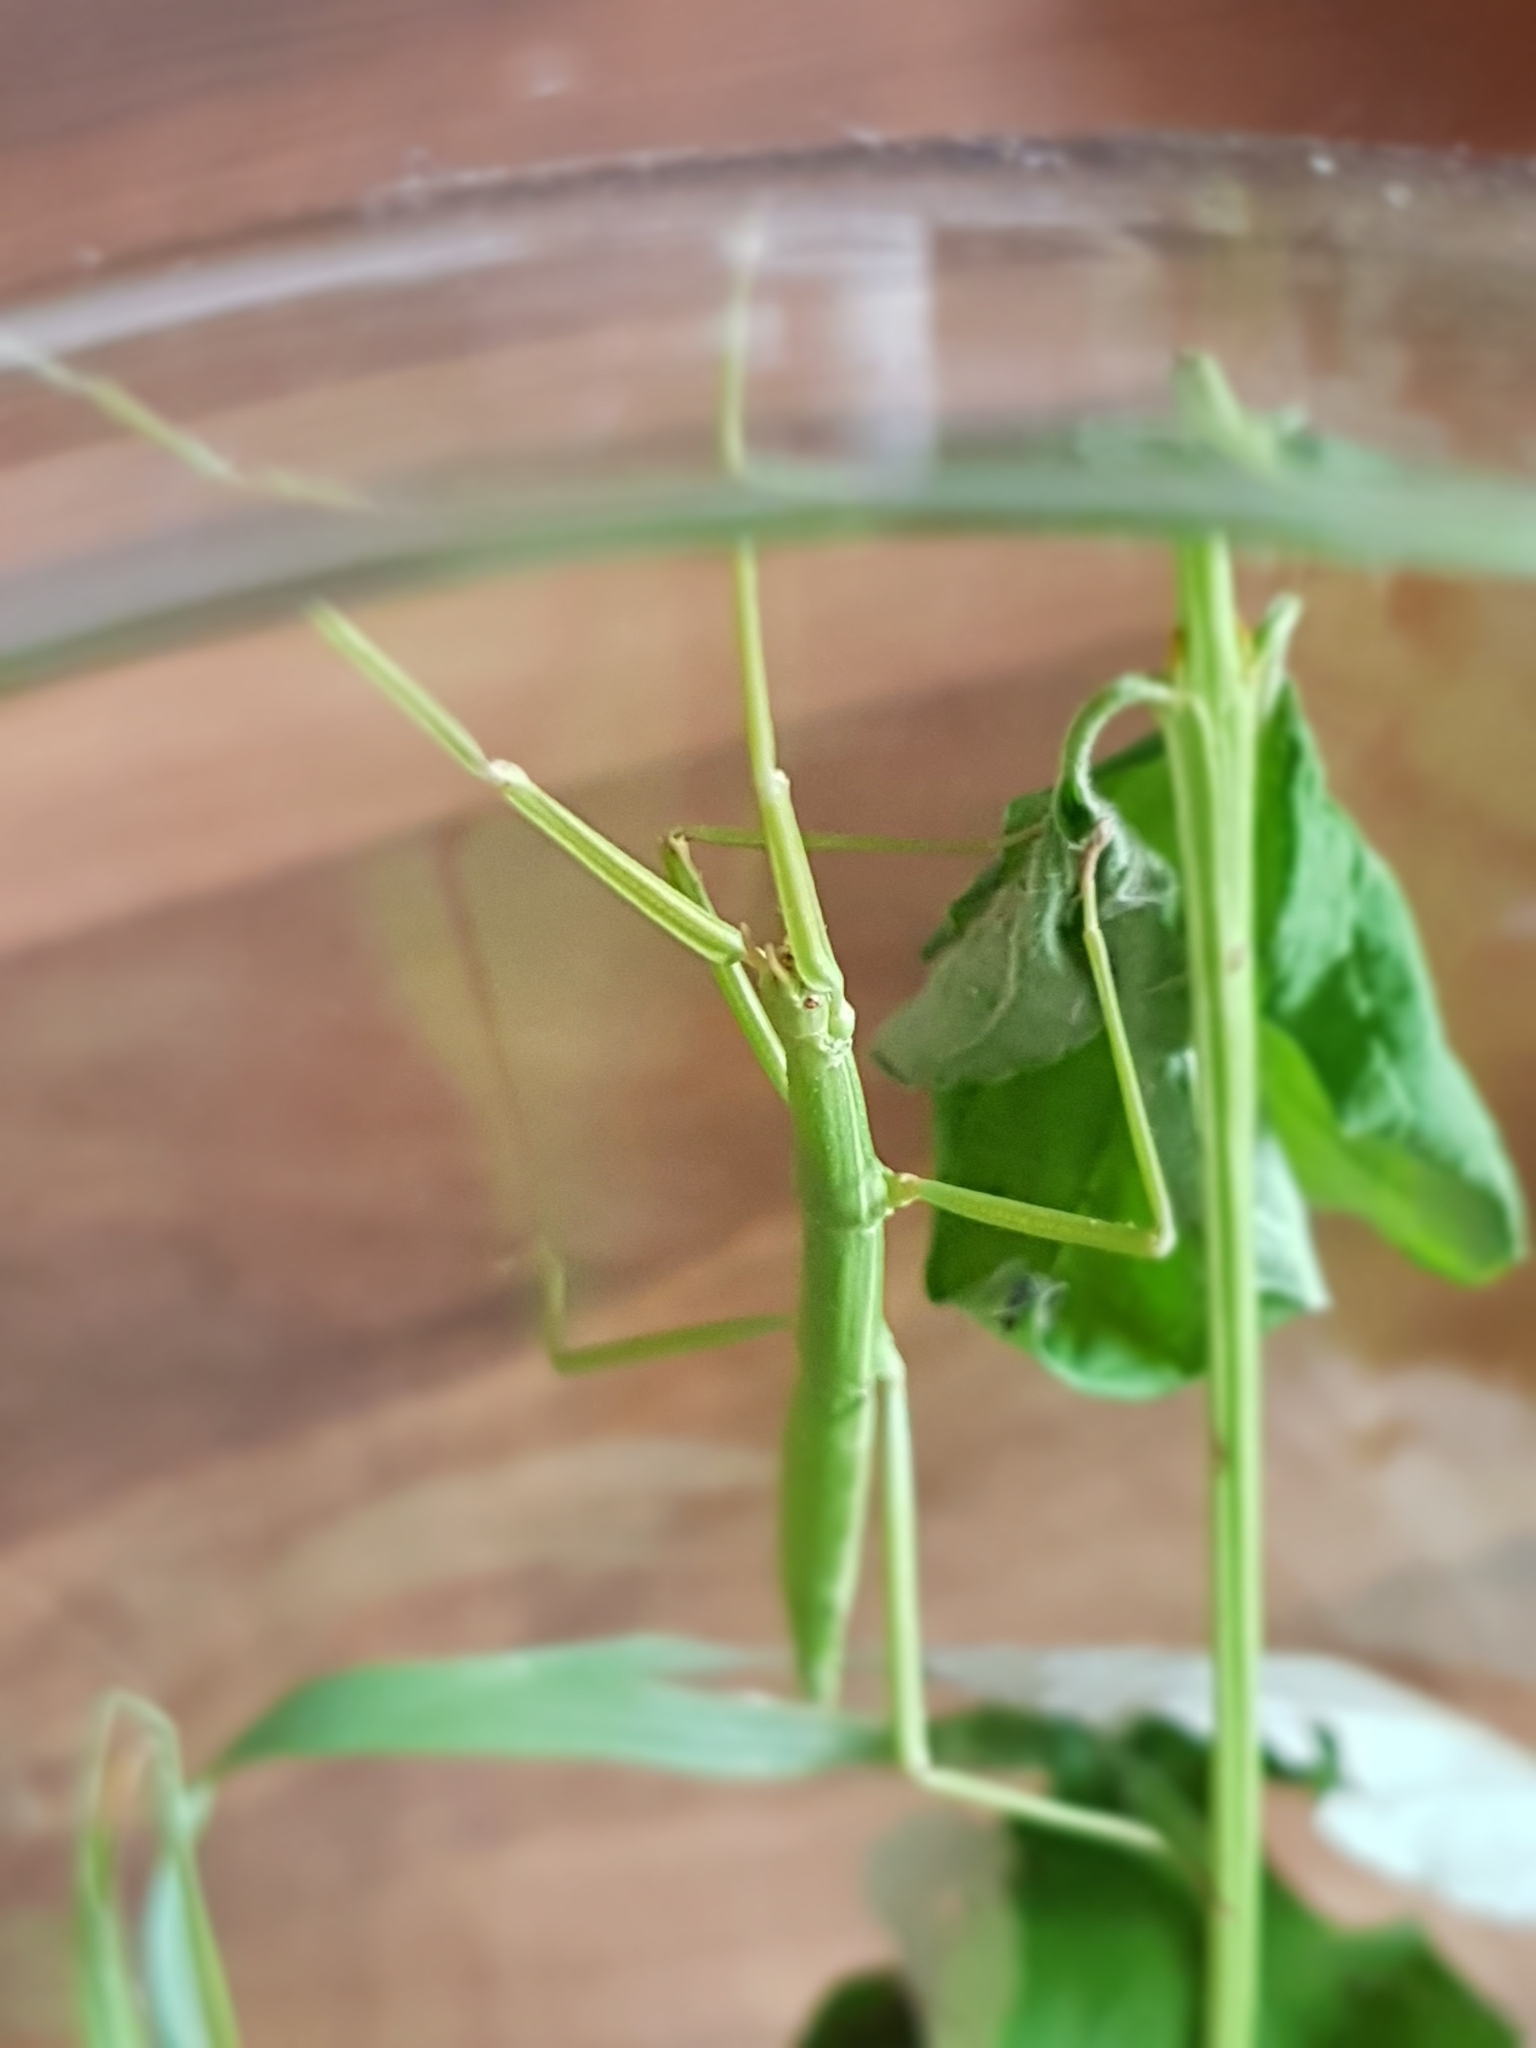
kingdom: Animalia
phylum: Arthropoda
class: Insecta
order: Phasmida
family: Bacillidae
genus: Clonopsis
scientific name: Clonopsis gallica
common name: French stick insect
